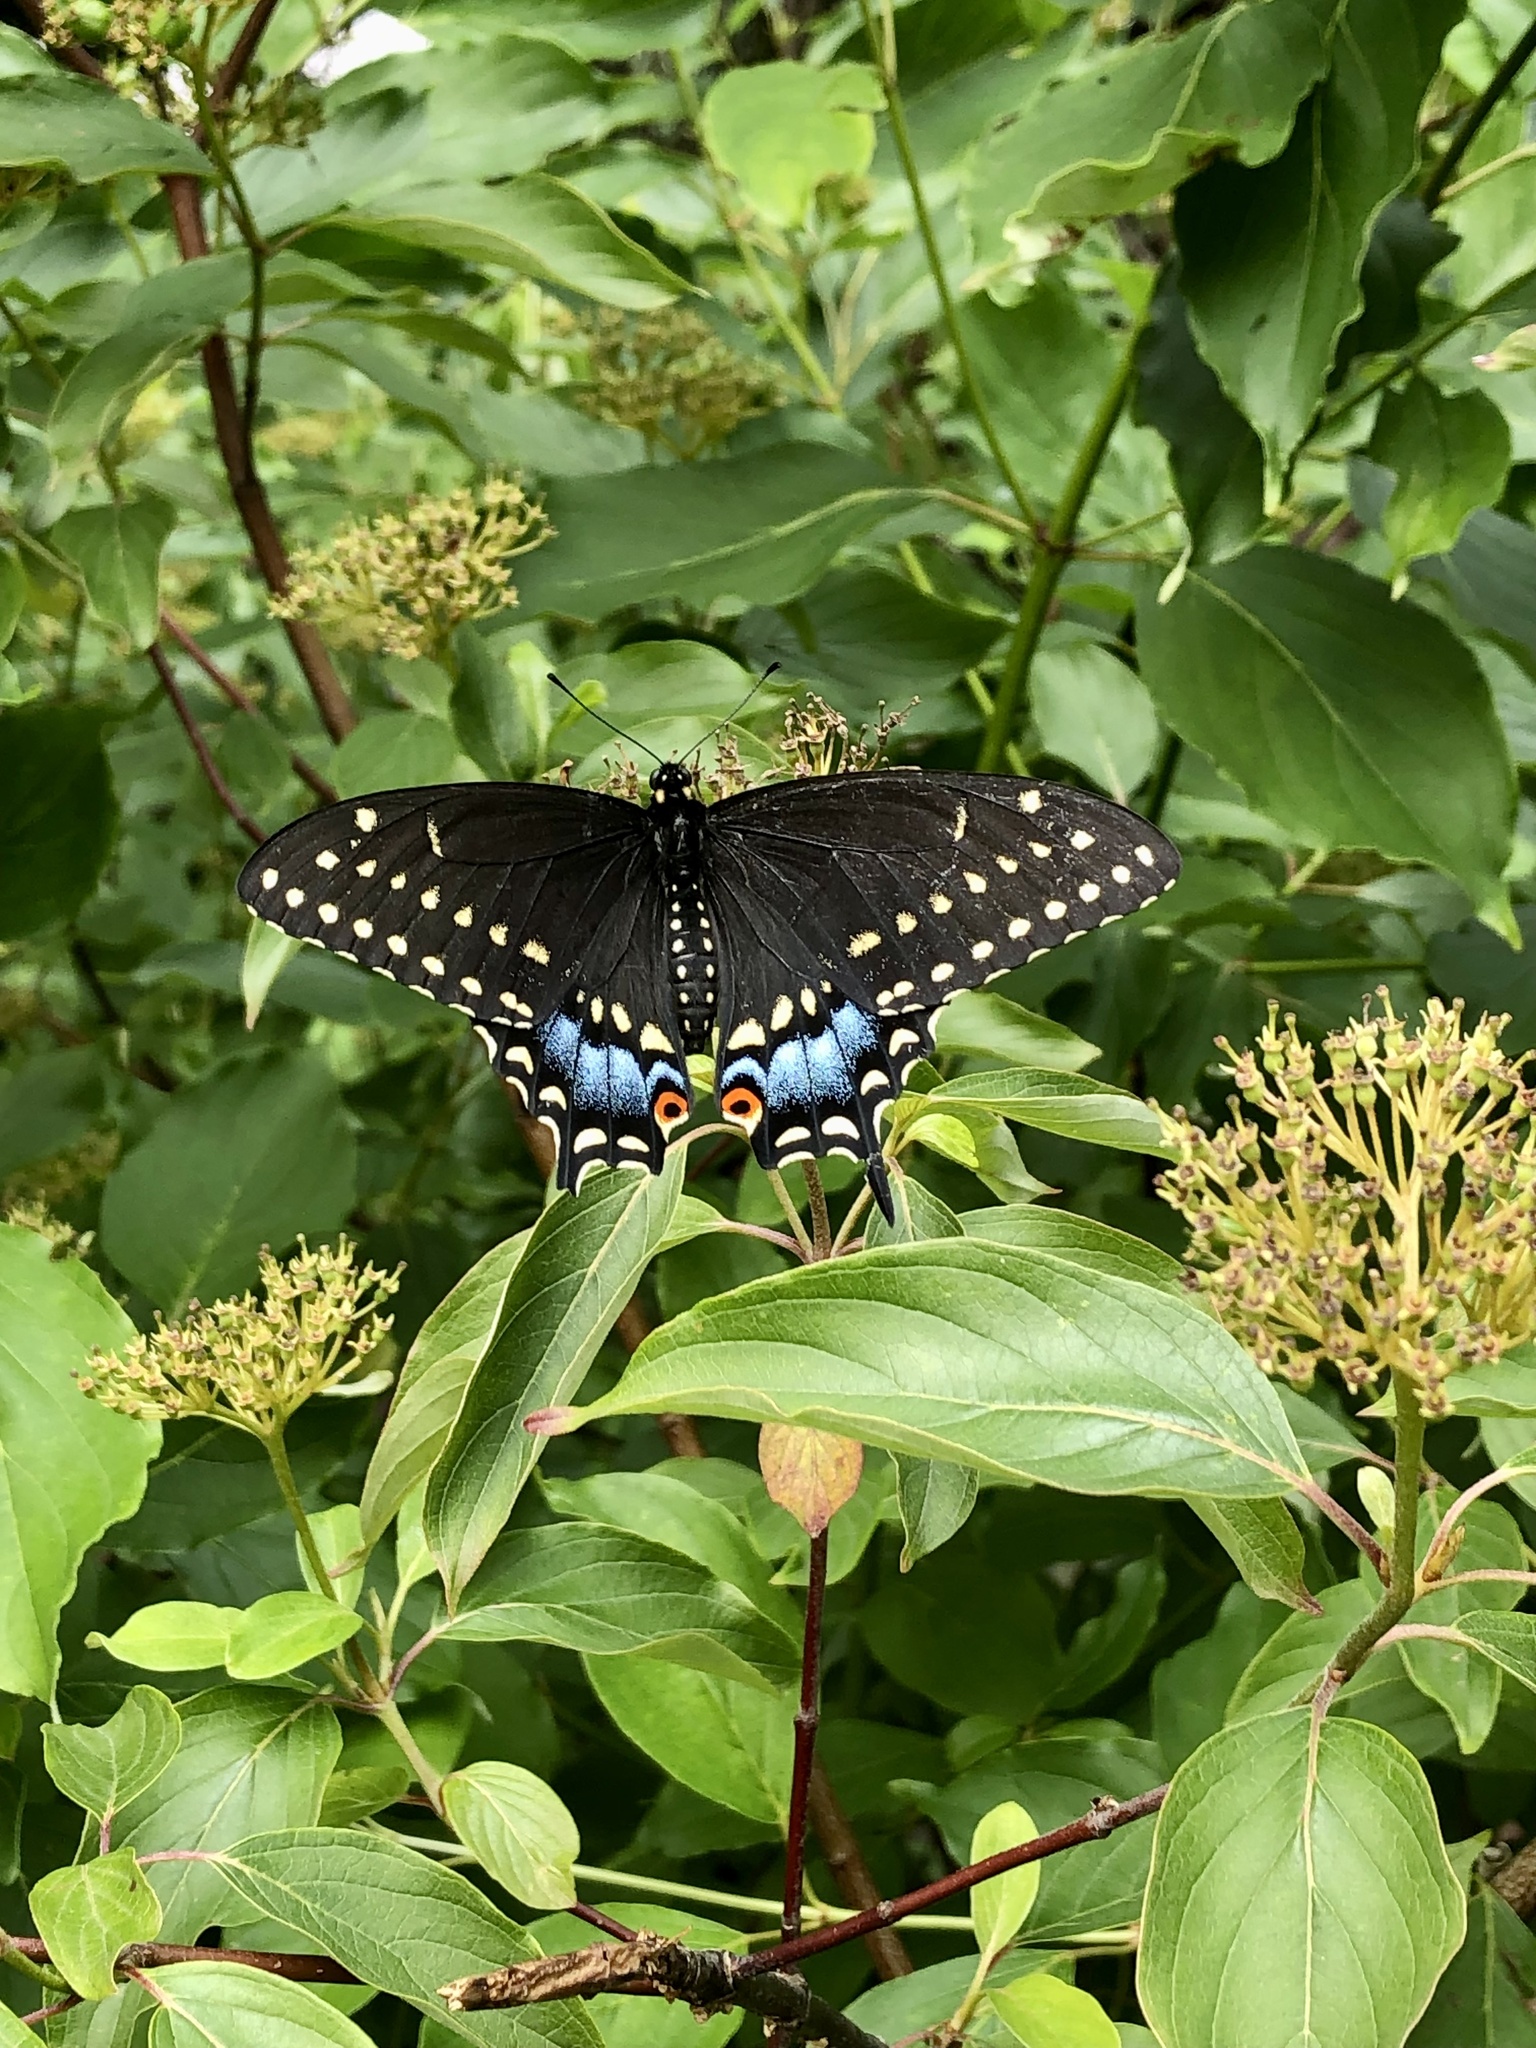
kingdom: Animalia
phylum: Arthropoda
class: Insecta
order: Lepidoptera
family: Papilionidae
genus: Papilio
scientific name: Papilio polyxenes
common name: Black swallowtail
